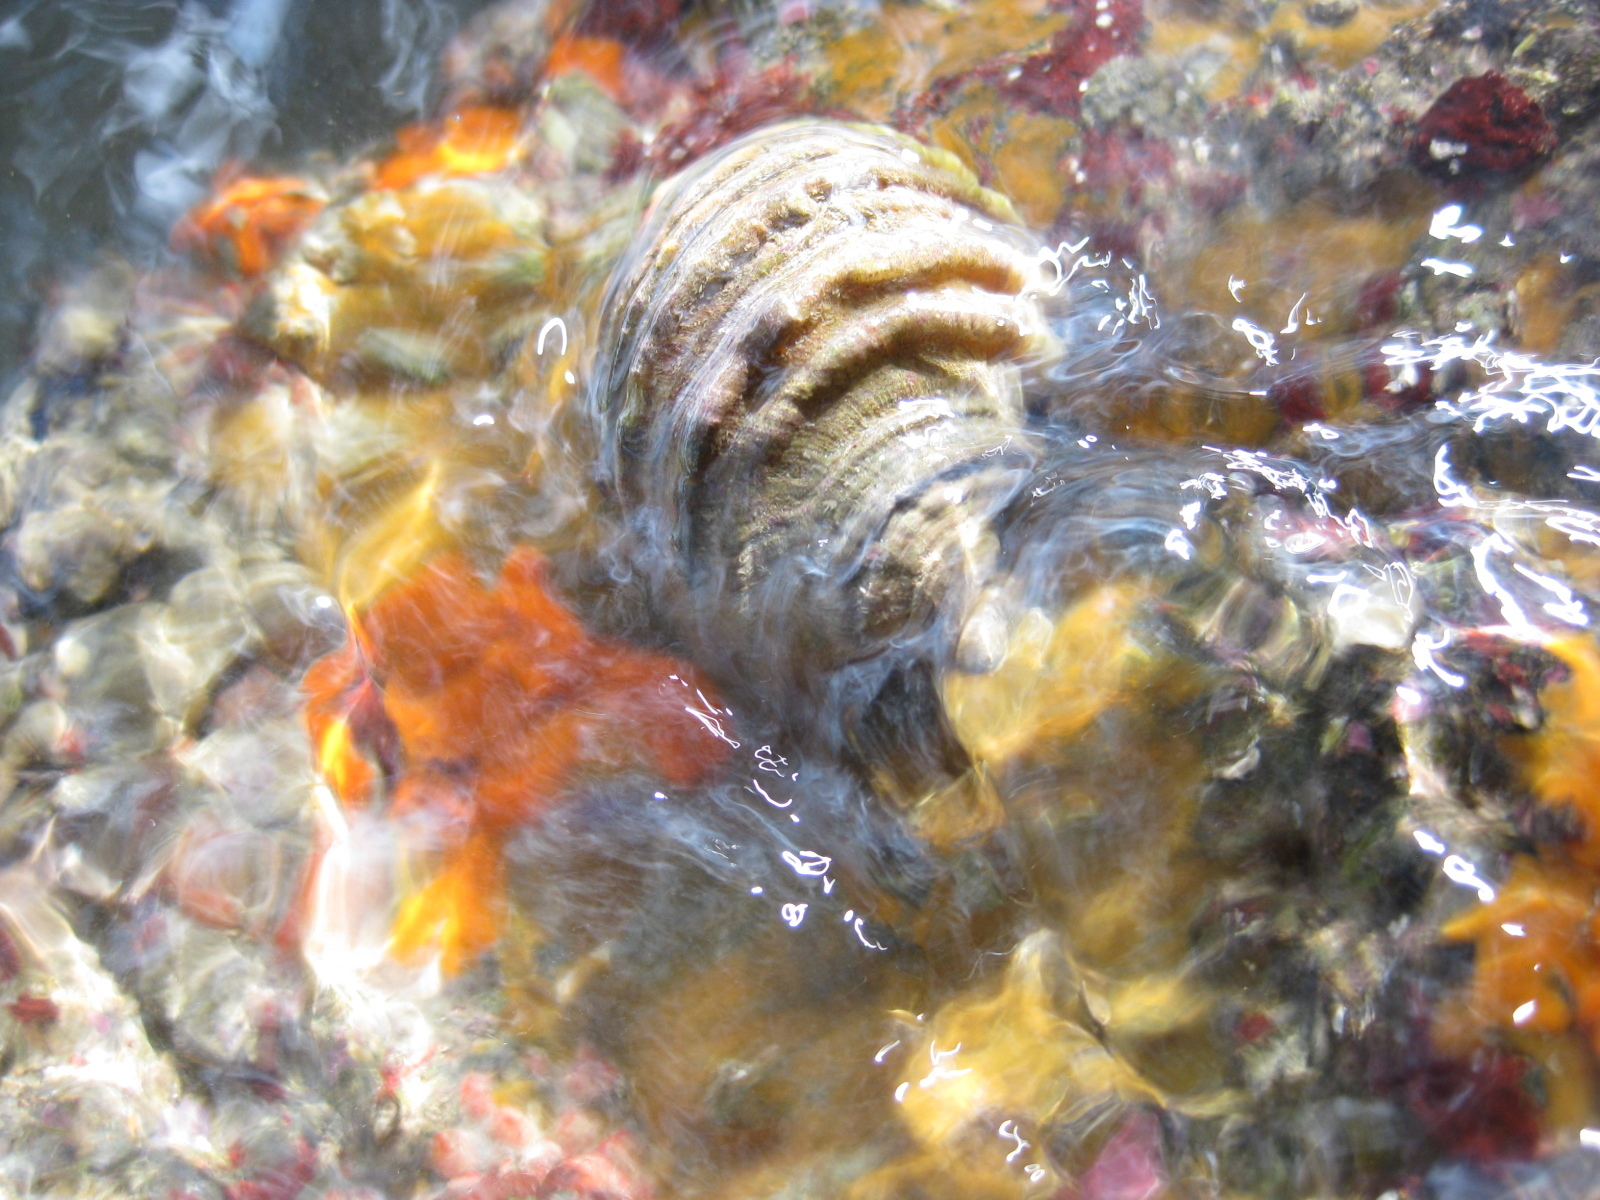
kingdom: Animalia
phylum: Mollusca
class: Gastropoda
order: Neogastropoda
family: Muricidae
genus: Dicathais
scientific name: Dicathais orbita
